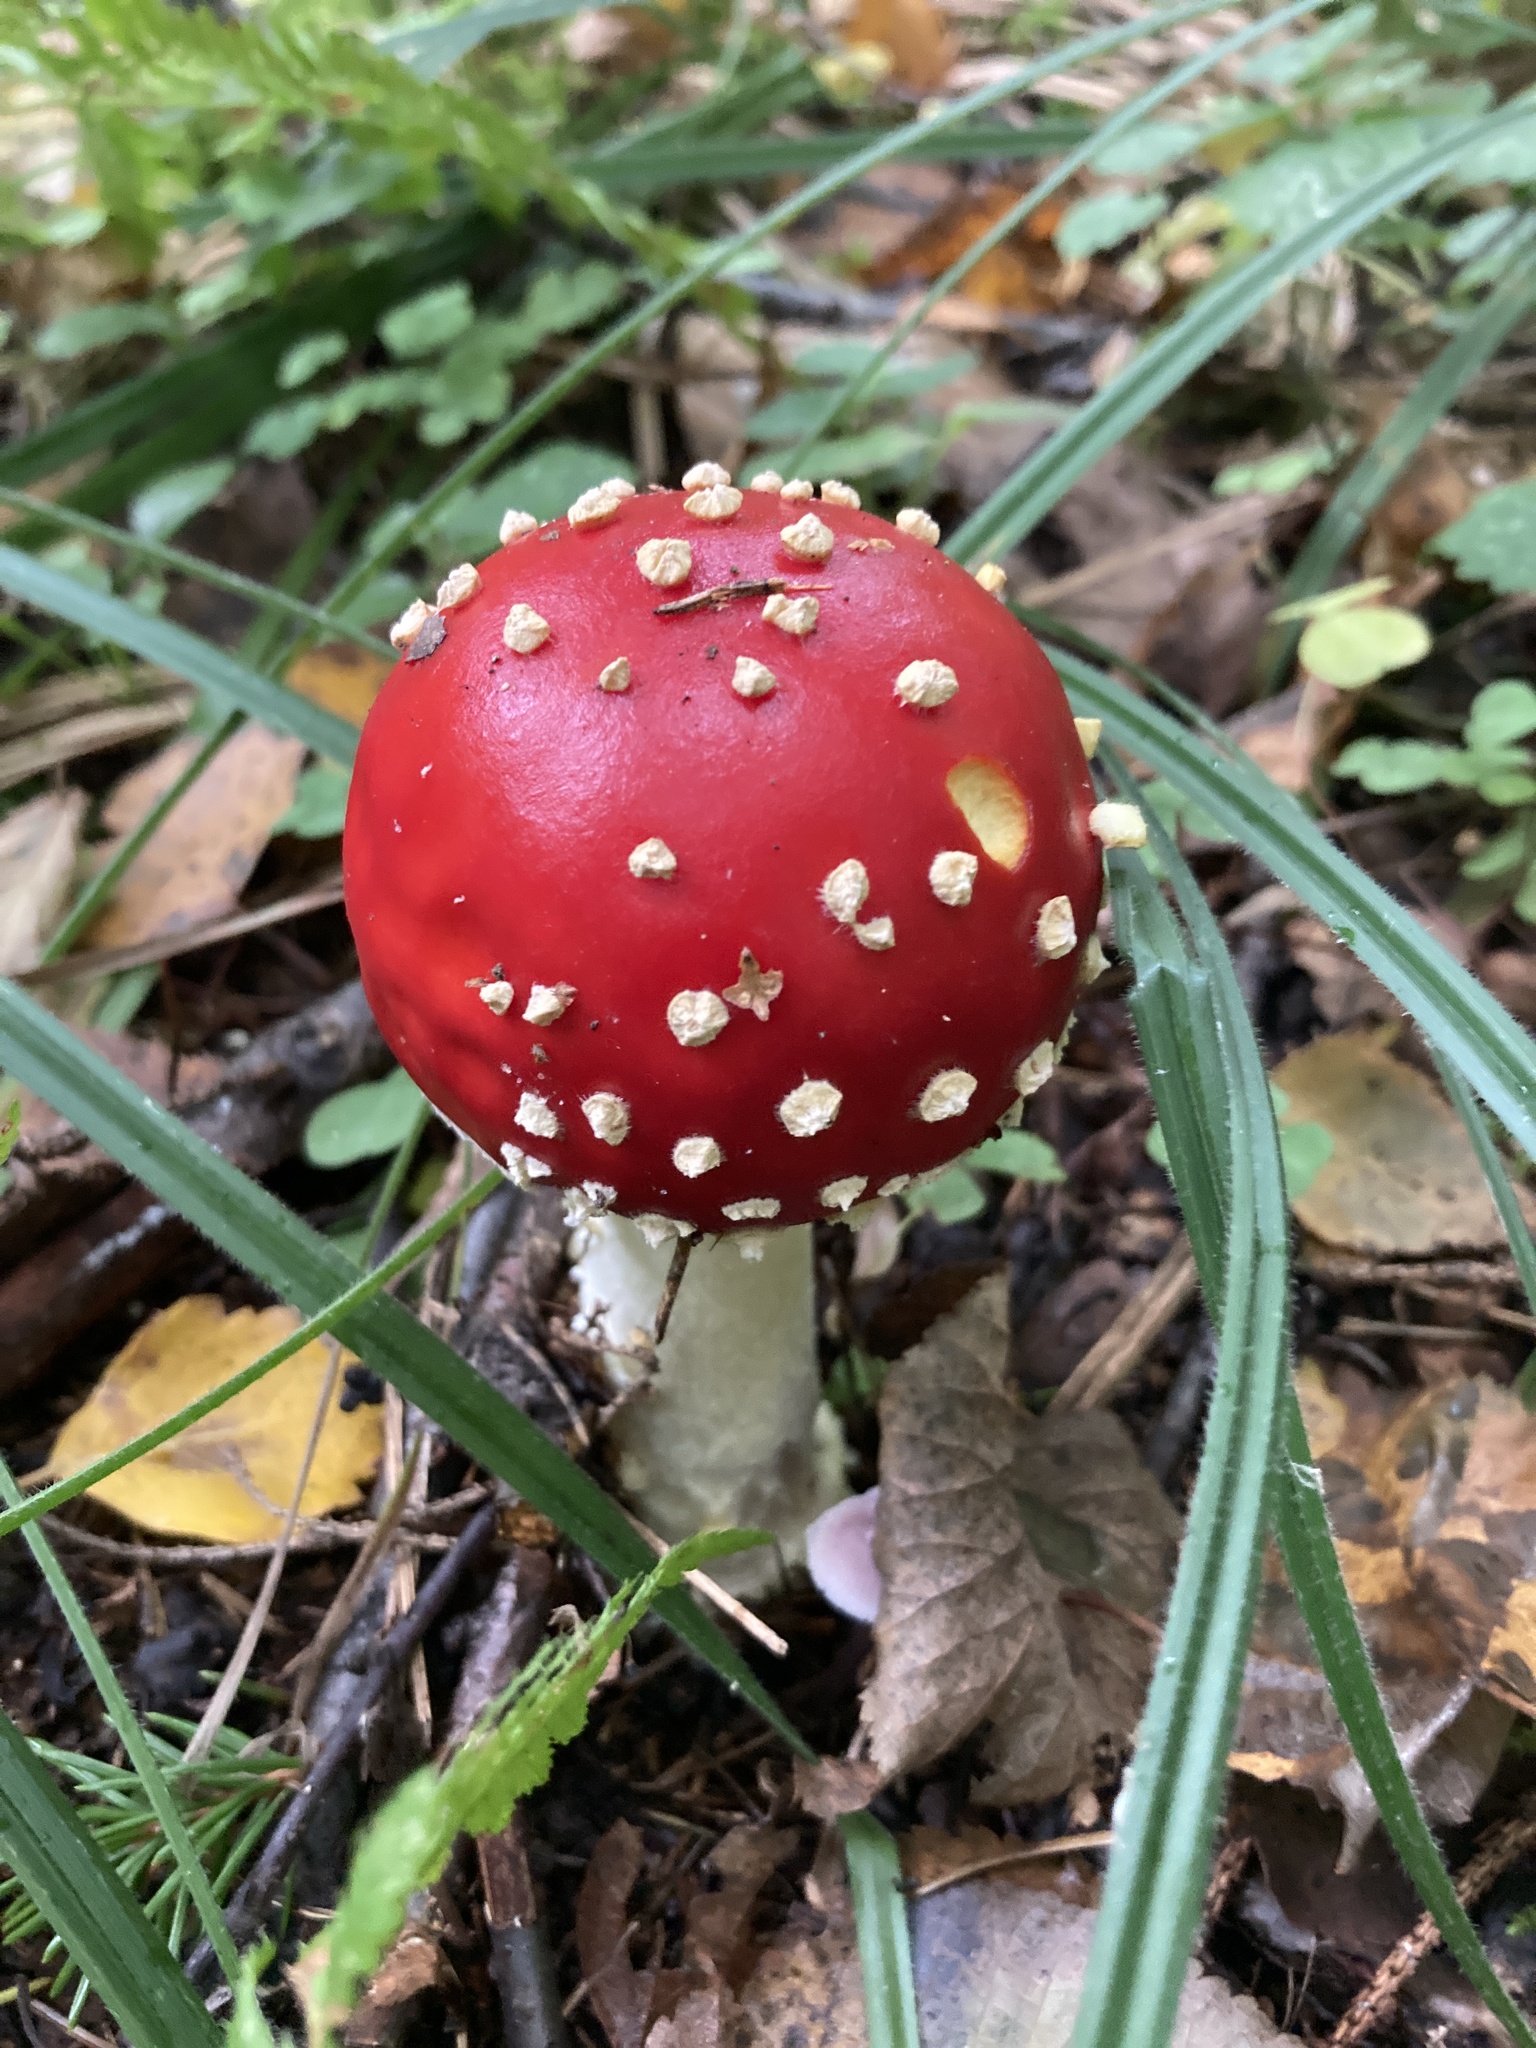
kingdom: Fungi
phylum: Basidiomycota
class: Agaricomycetes
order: Agaricales
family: Amanitaceae
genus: Amanita
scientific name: Amanita muscaria
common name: Fly agaric
